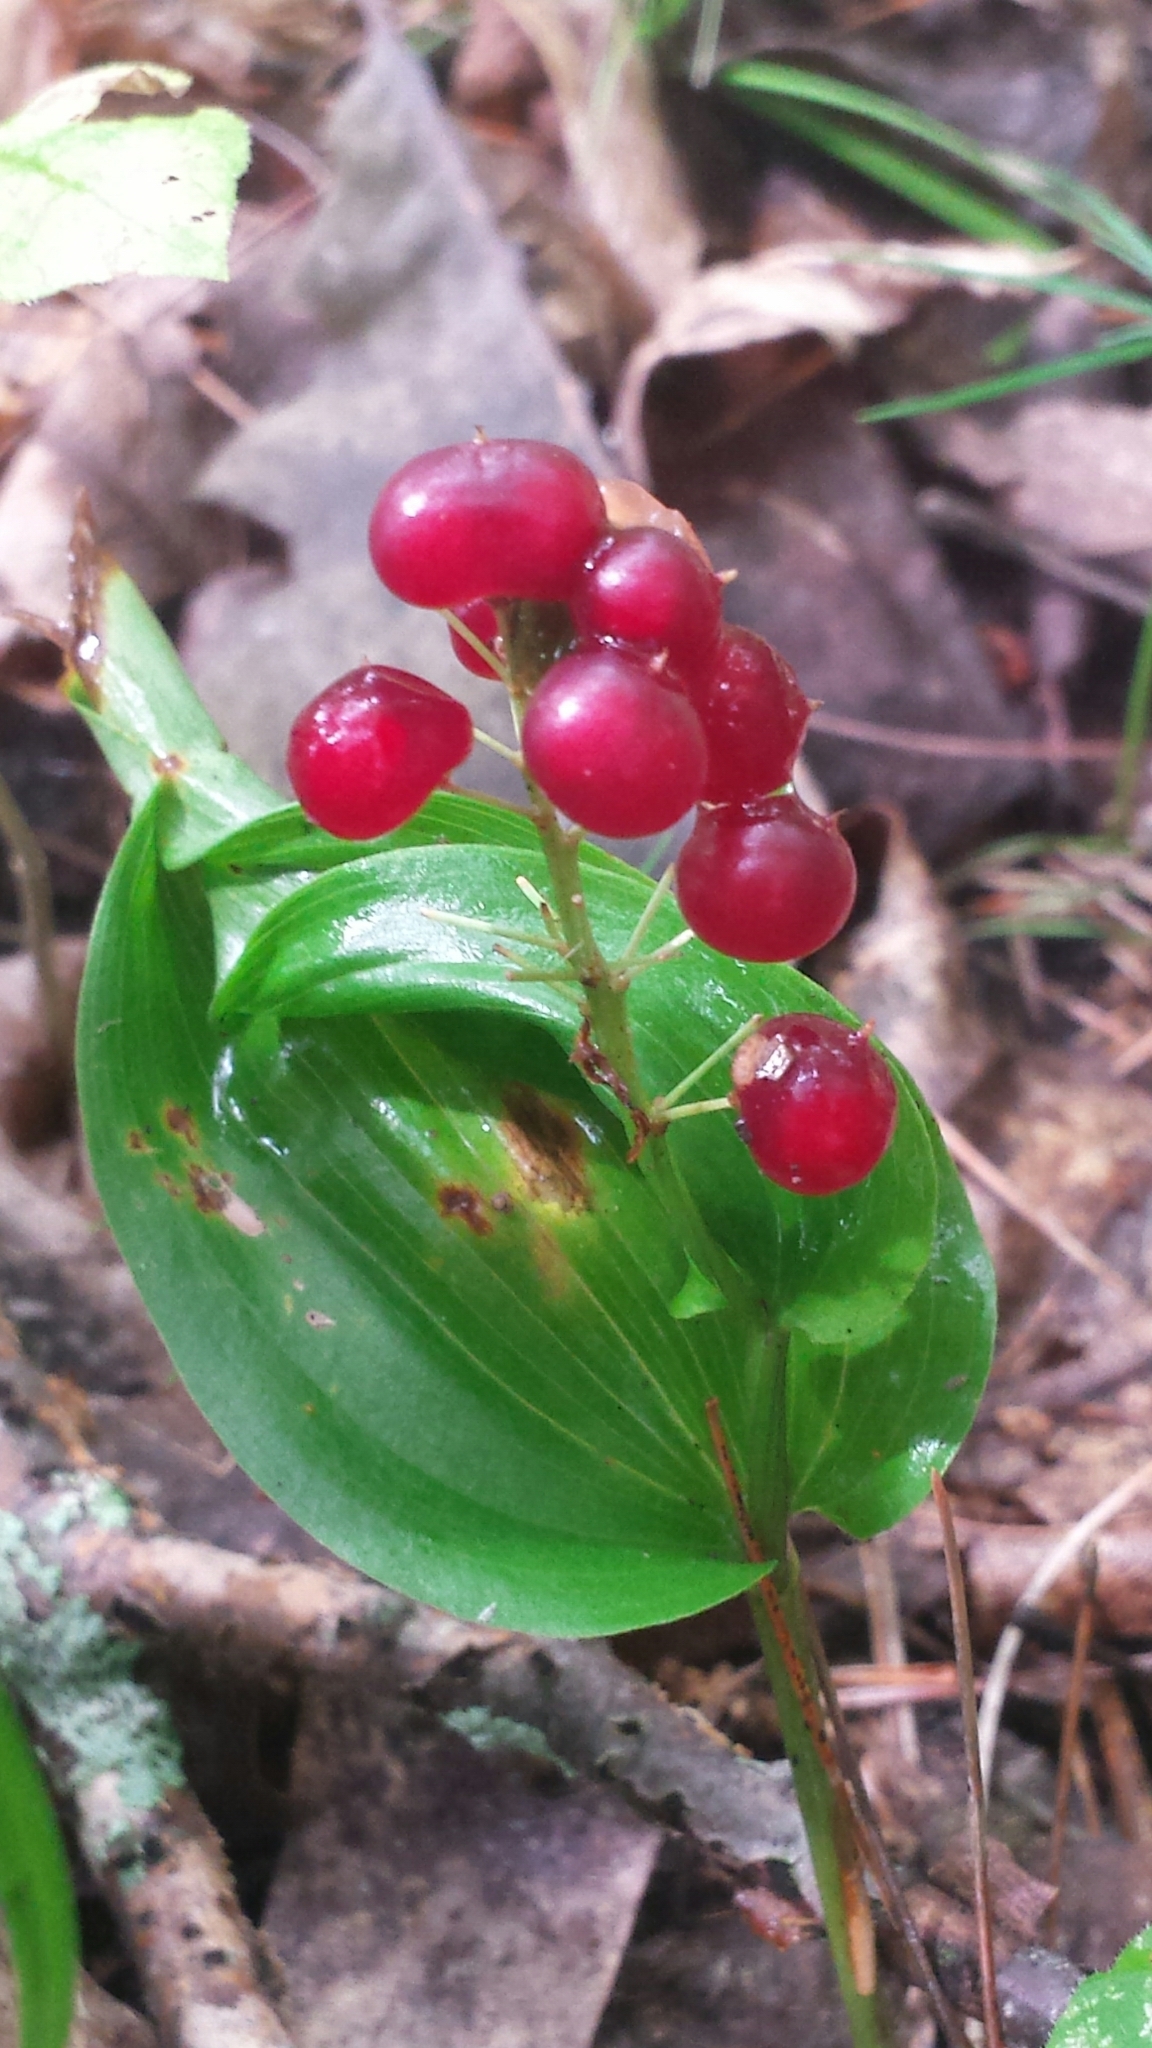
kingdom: Plantae
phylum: Tracheophyta
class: Liliopsida
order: Asparagales
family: Asparagaceae
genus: Maianthemum
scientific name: Maianthemum canadense
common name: False lily-of-the-valley
